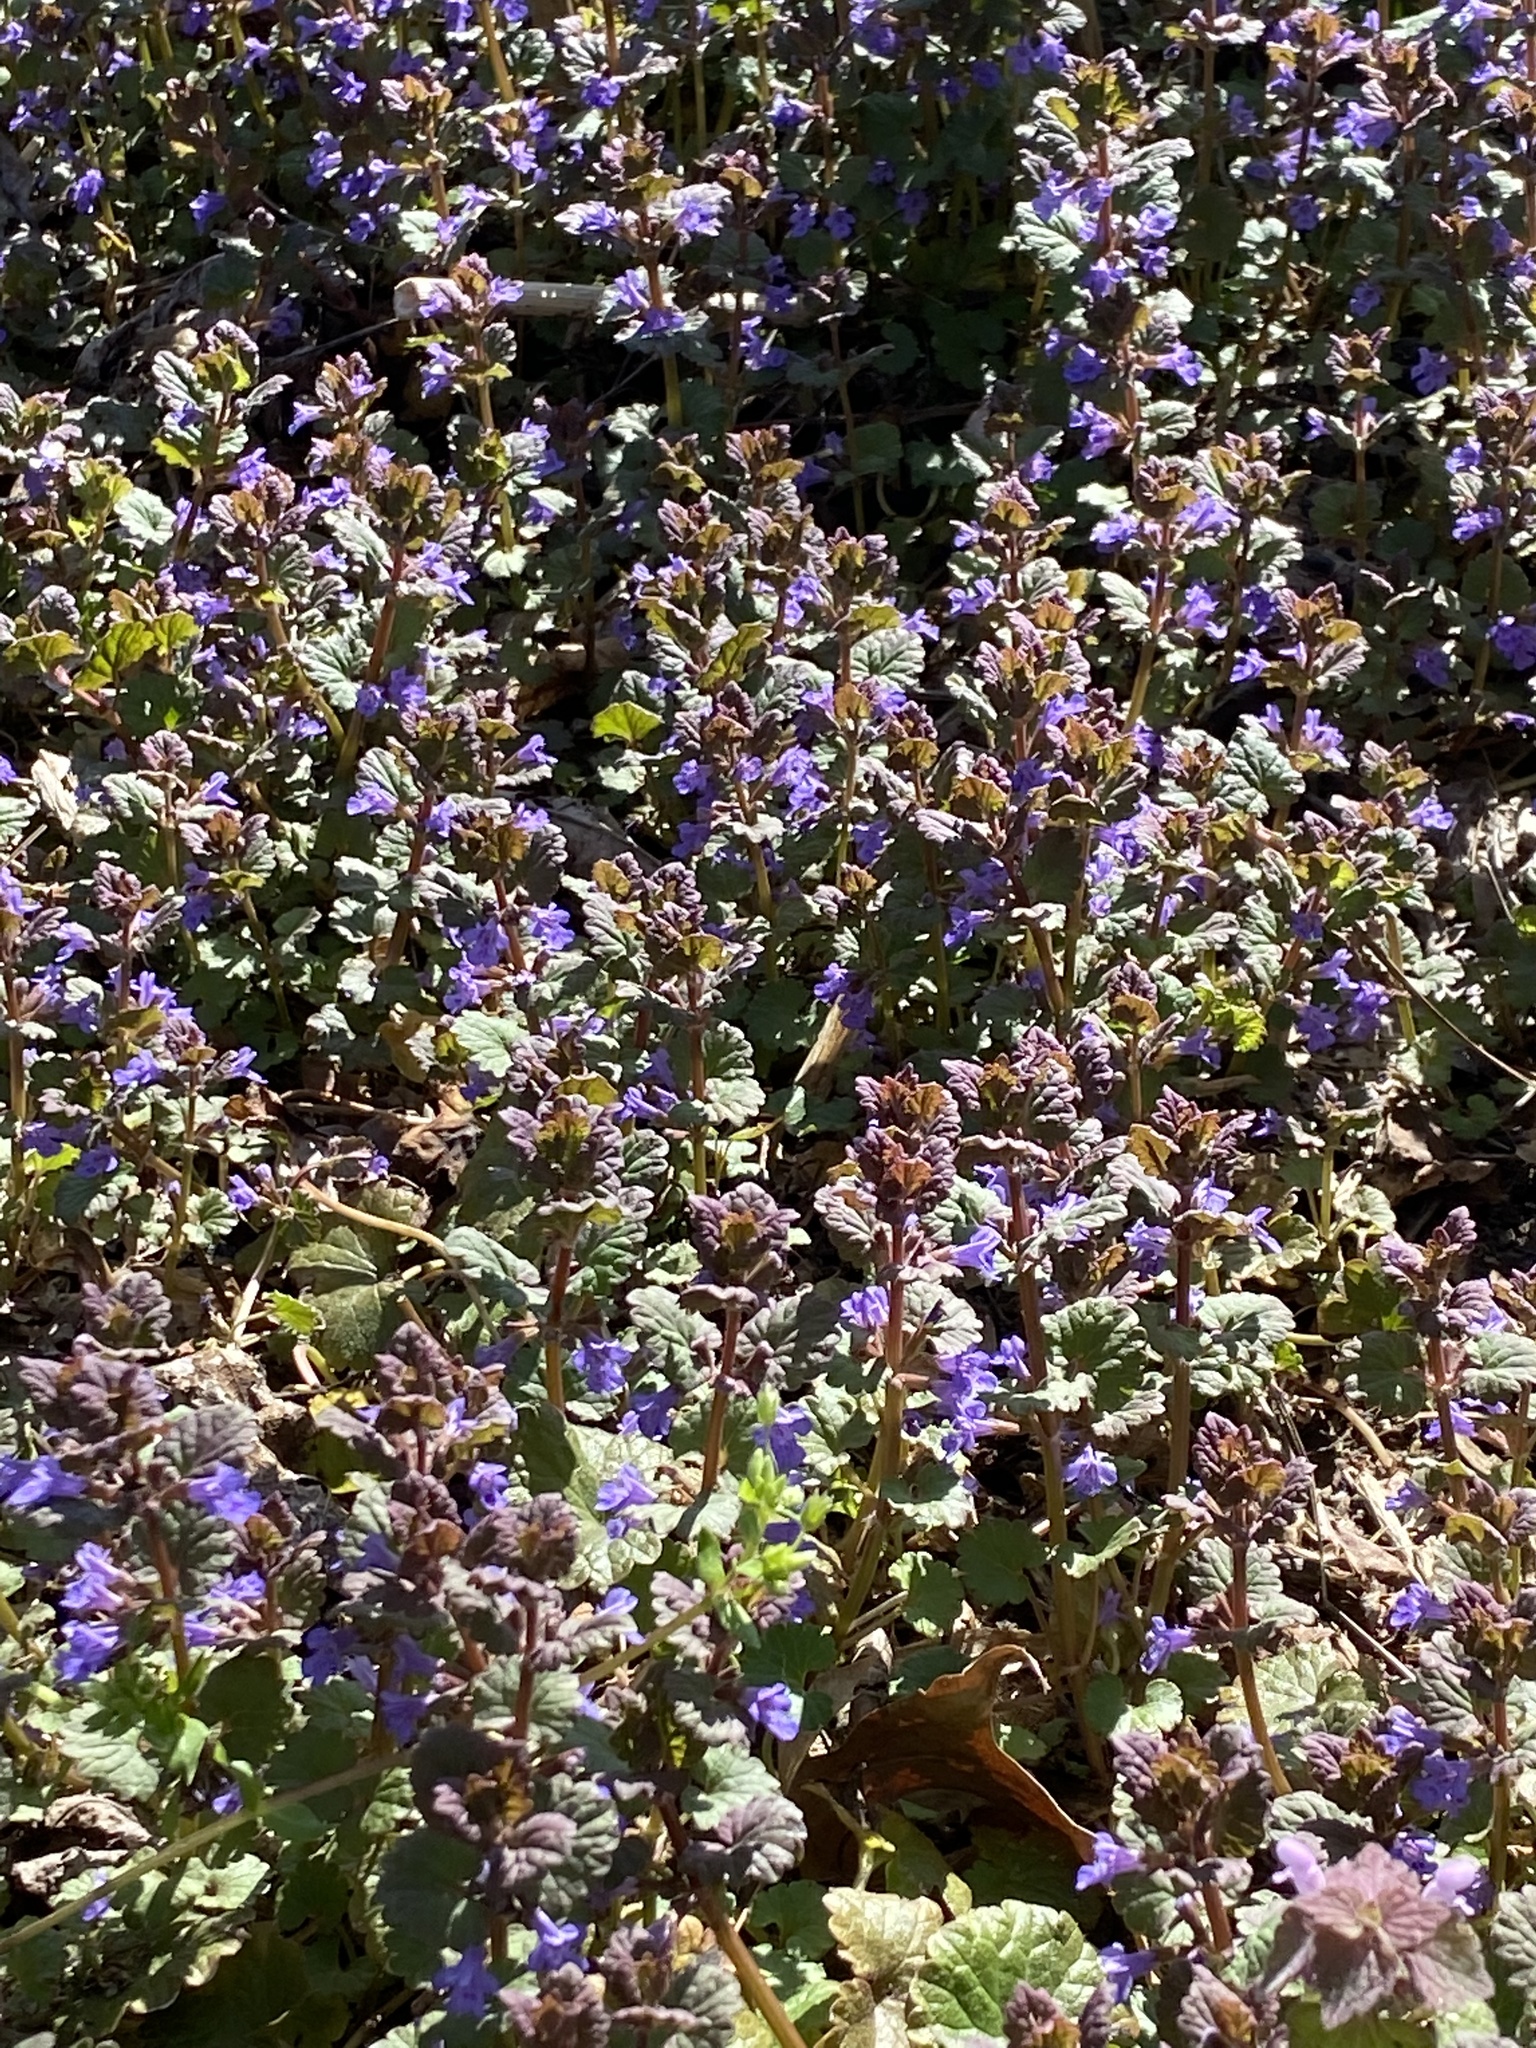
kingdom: Plantae
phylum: Tracheophyta
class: Magnoliopsida
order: Lamiales
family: Lamiaceae
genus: Glechoma
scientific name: Glechoma hederacea
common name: Ground ivy
